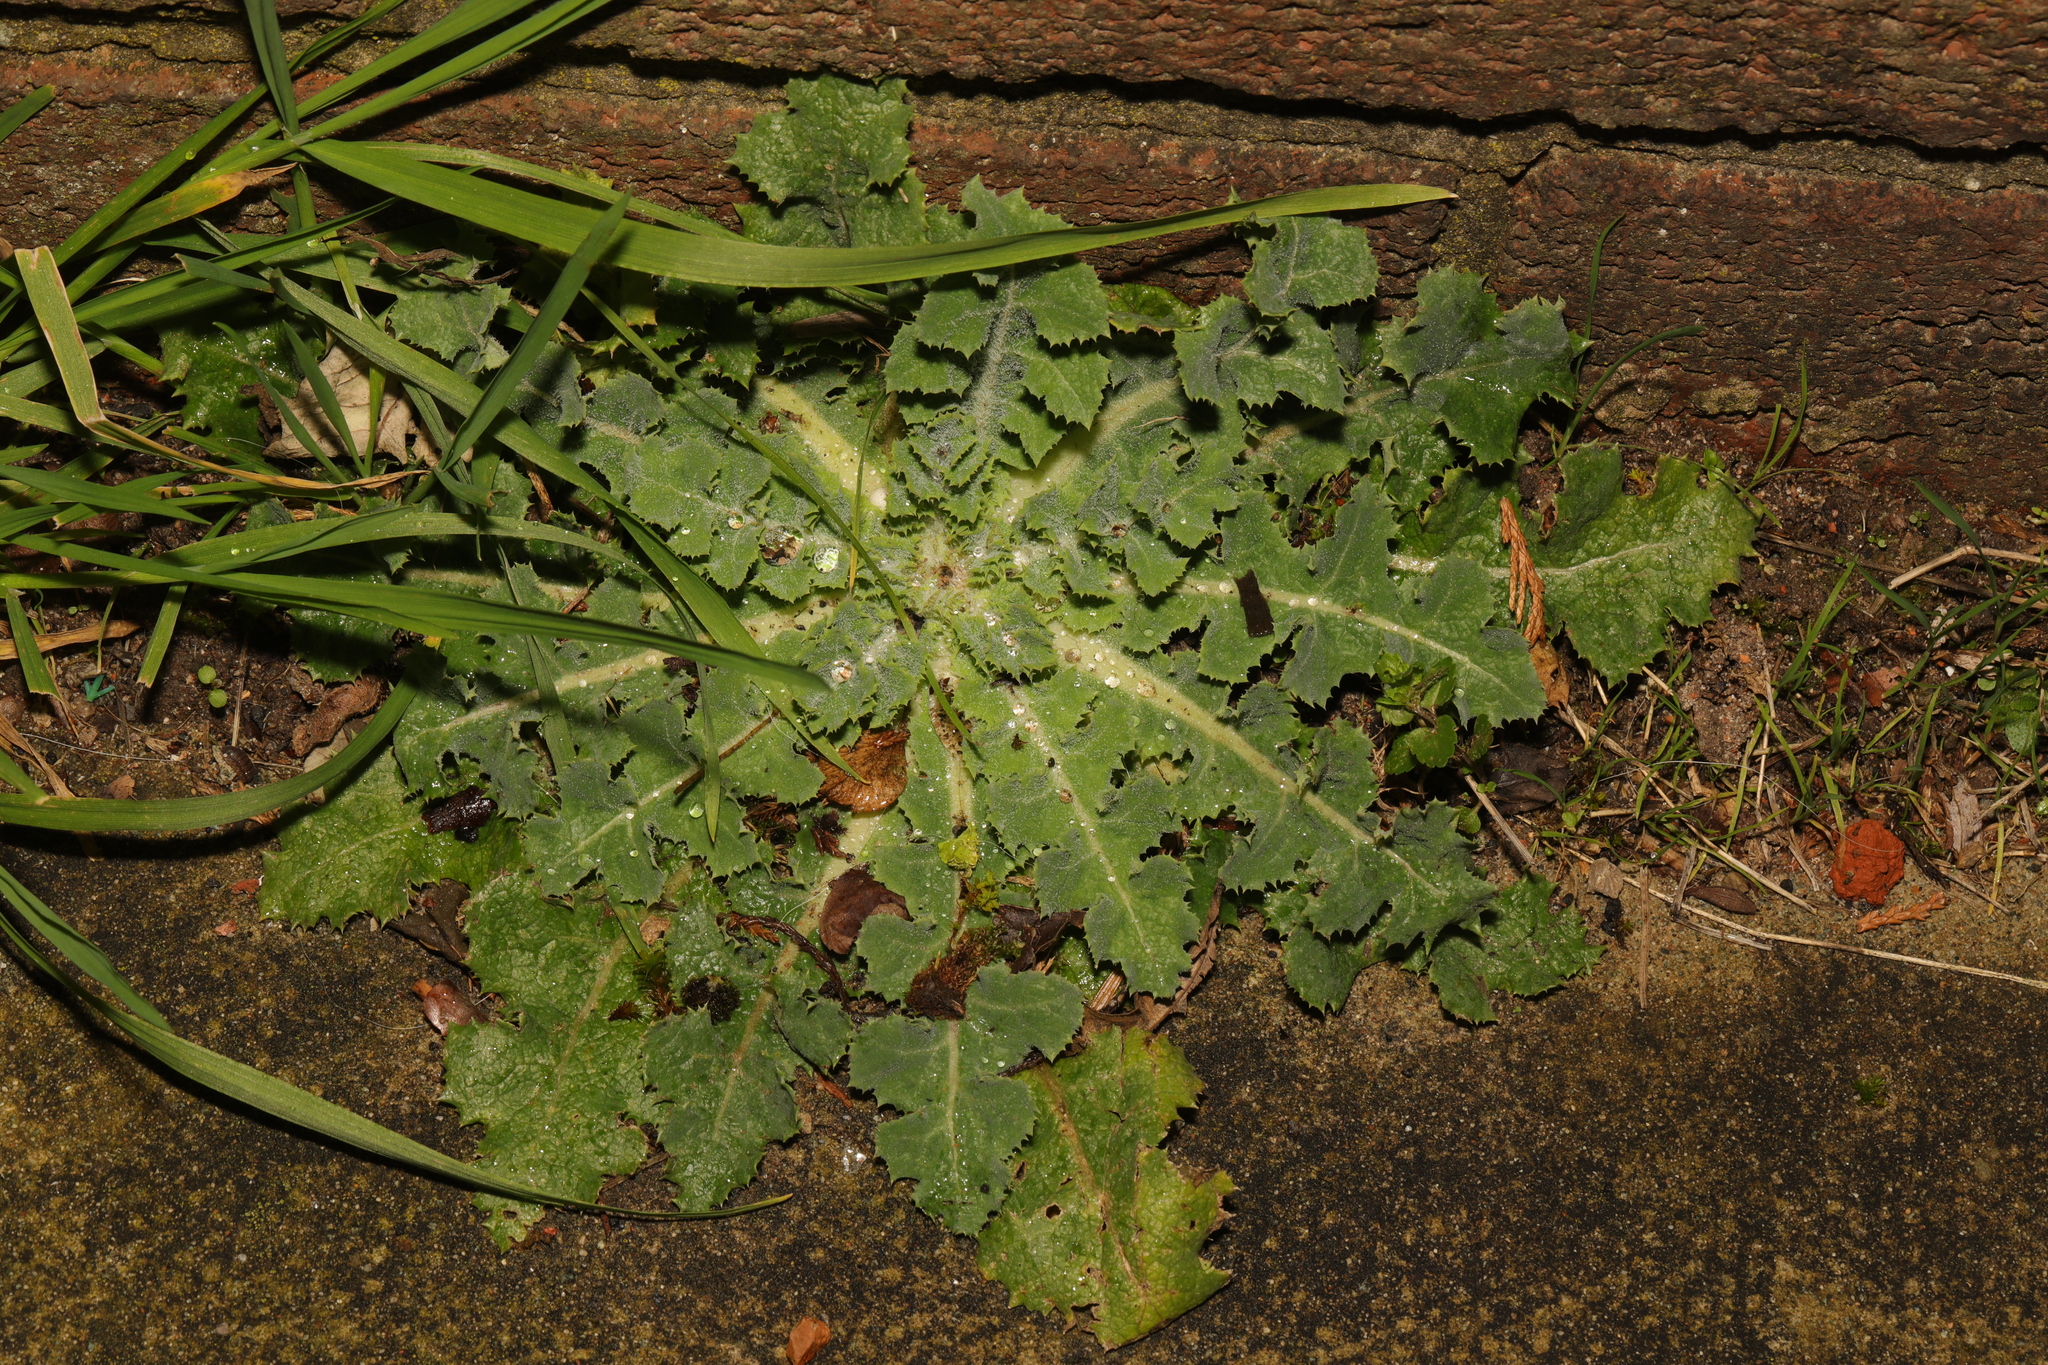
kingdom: Plantae
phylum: Tracheophyta
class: Magnoliopsida
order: Asterales
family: Asteraceae
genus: Sonchus
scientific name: Sonchus asper
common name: Prickly sow-thistle
